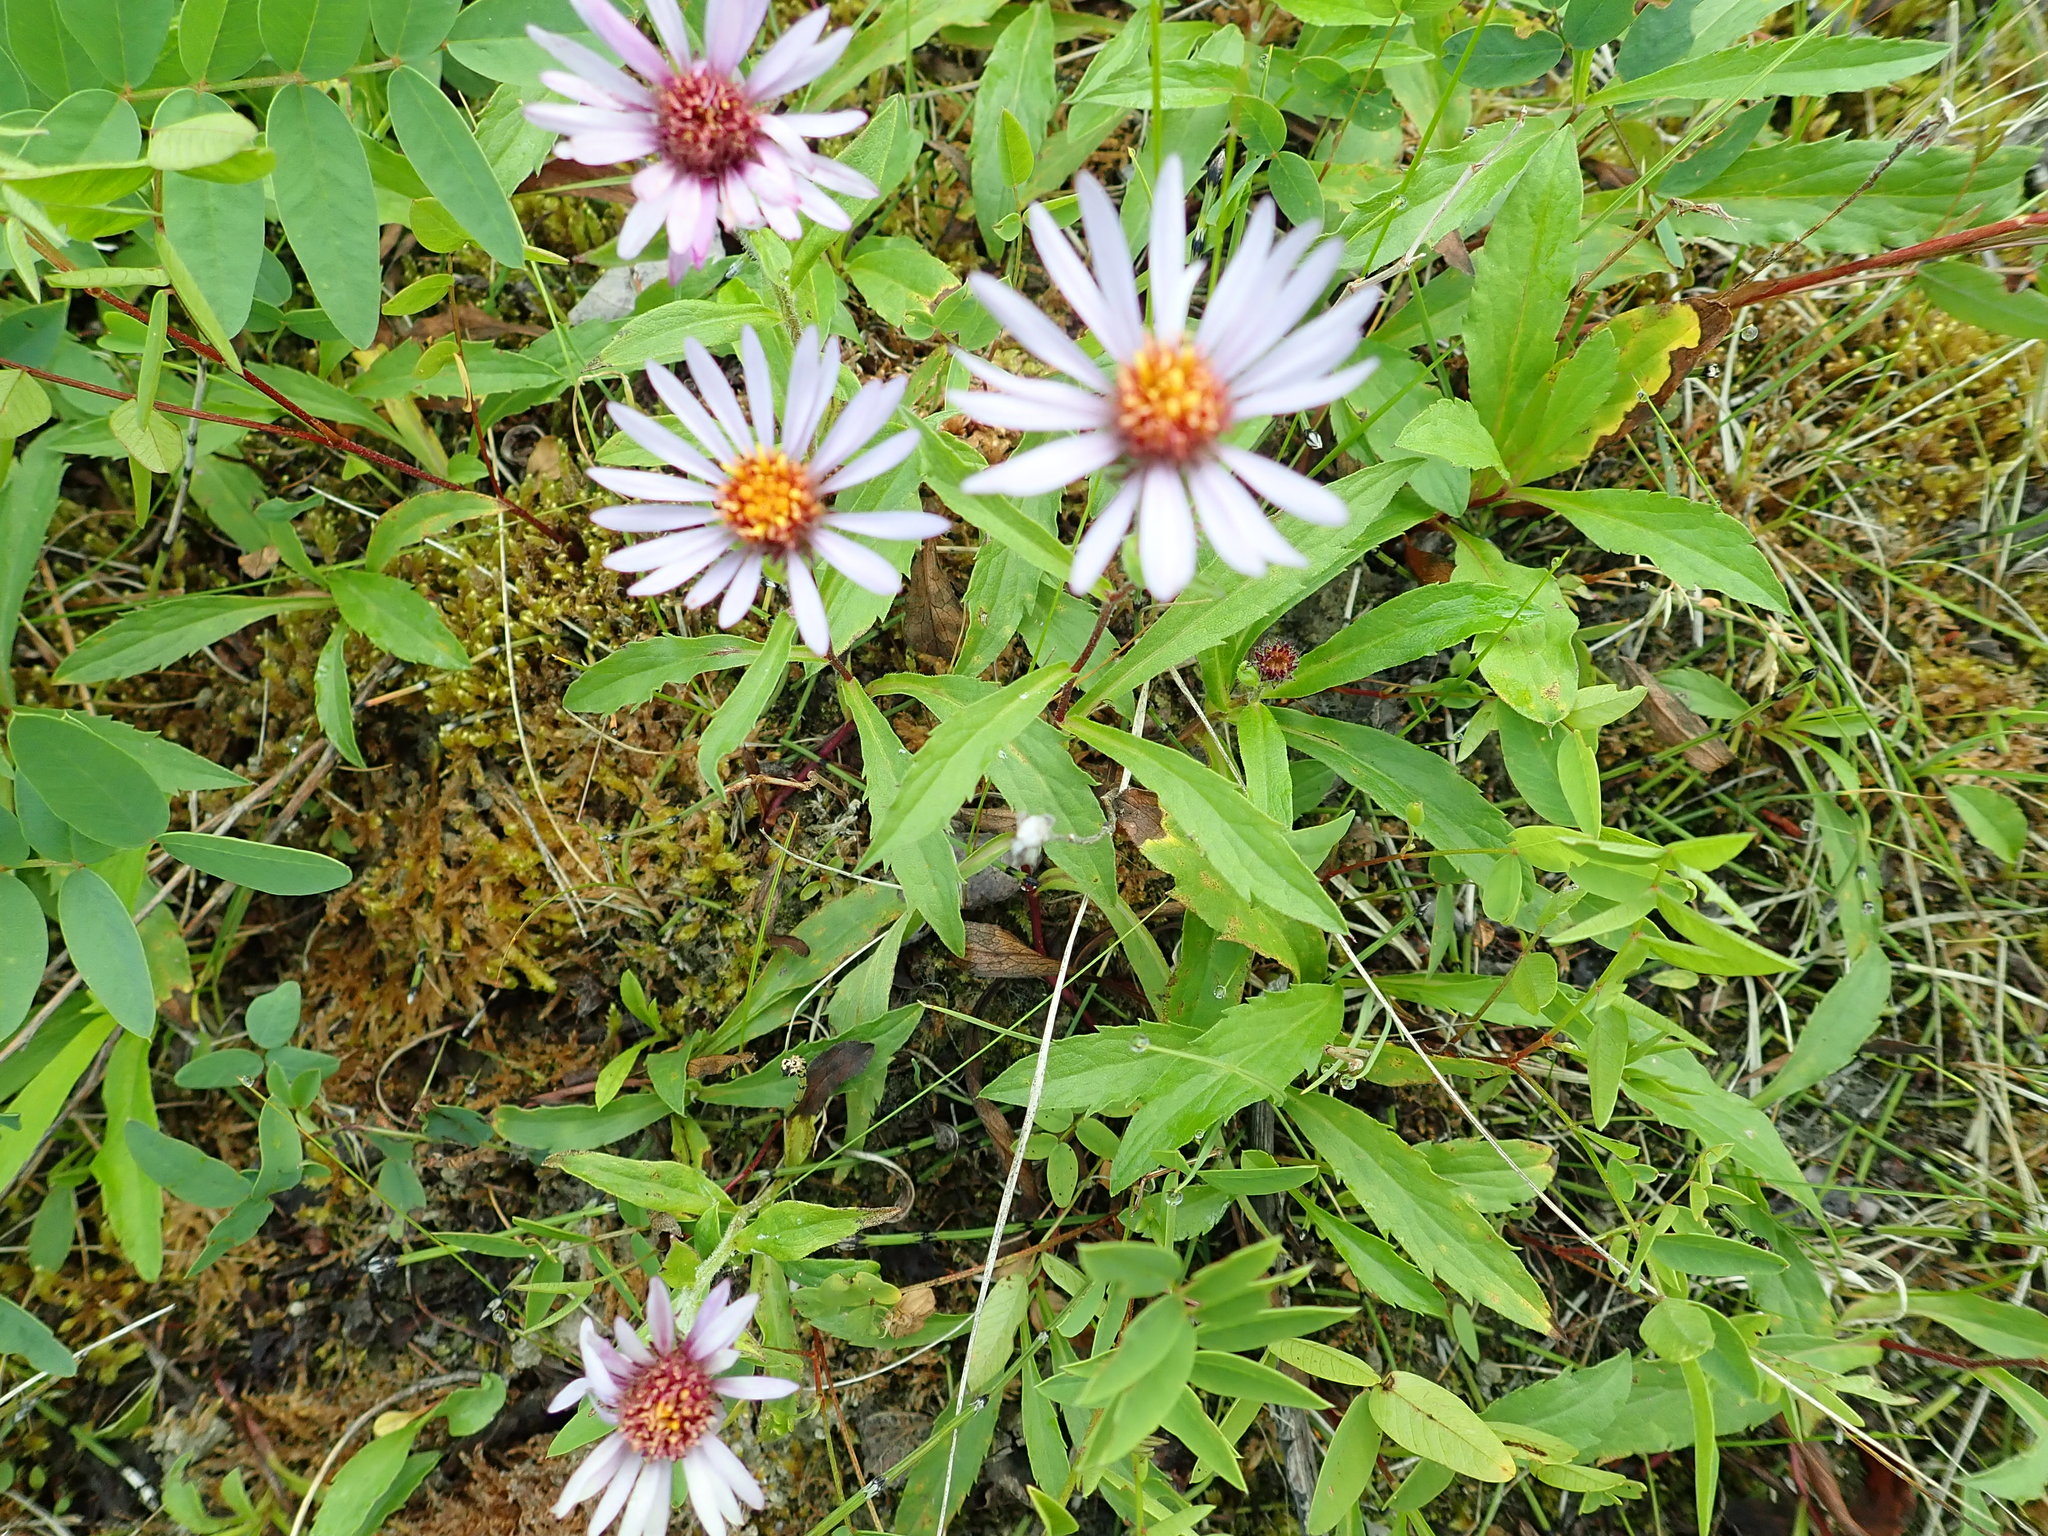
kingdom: Plantae
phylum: Tracheophyta
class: Magnoliopsida
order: Asterales
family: Asteraceae
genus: Eurybia
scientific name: Eurybia sibirica
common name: Arctic aster
